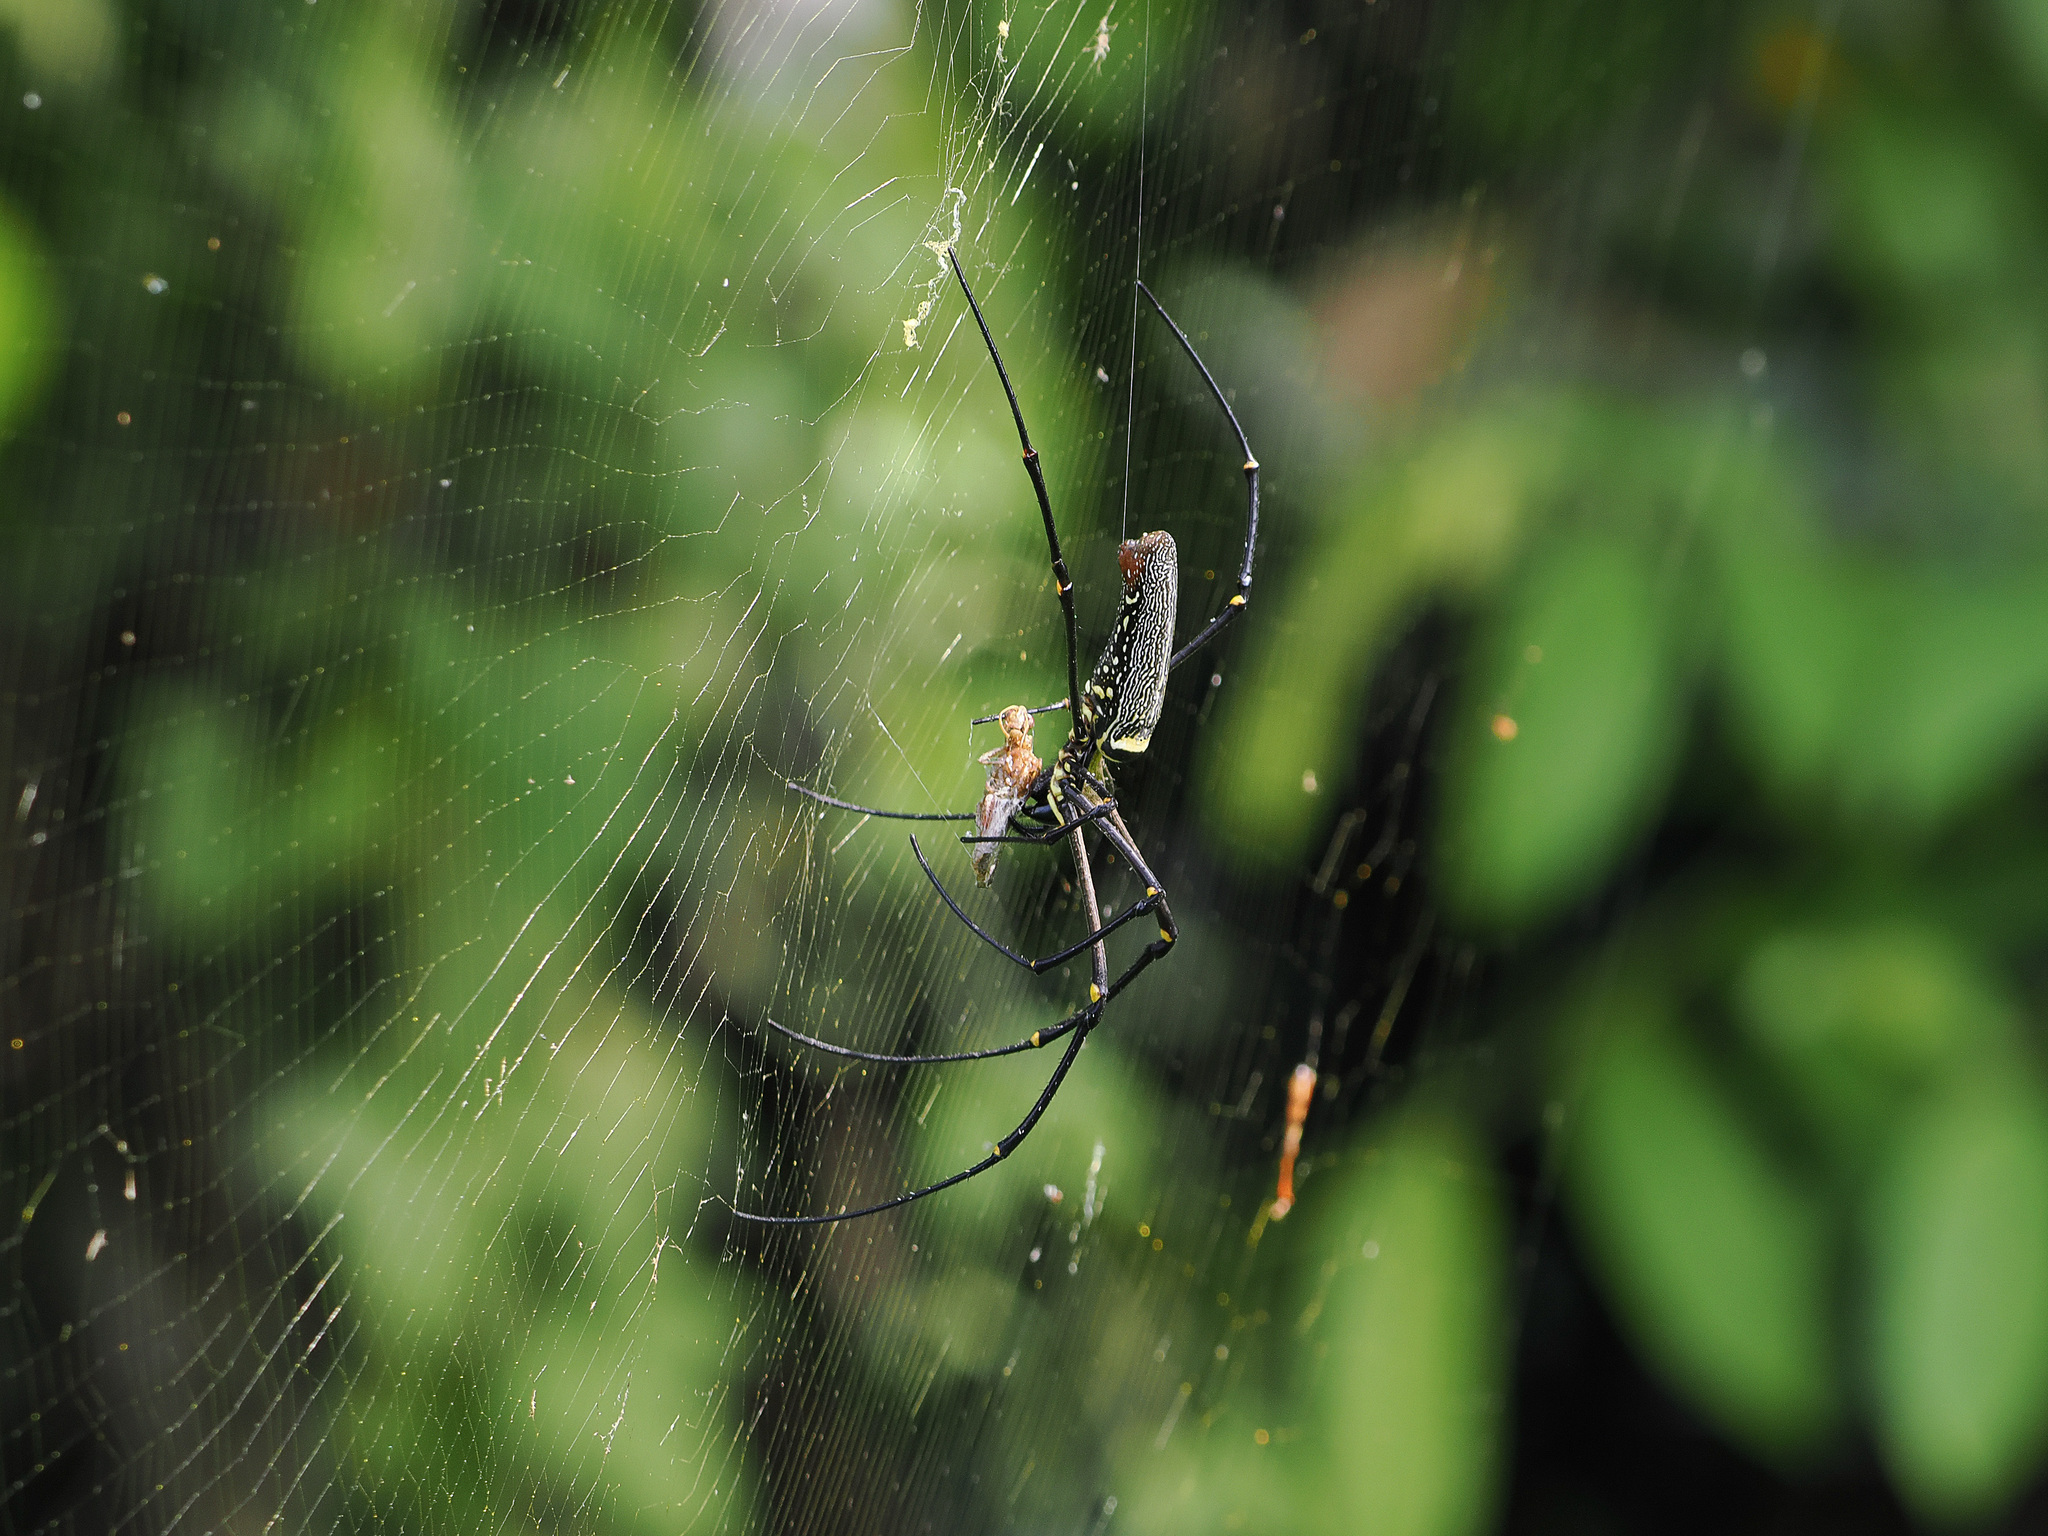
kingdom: Animalia
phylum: Arthropoda
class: Arachnida
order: Araneae
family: Araneidae
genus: Nephila
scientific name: Nephila pilipes
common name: Giant golden orb weaver
